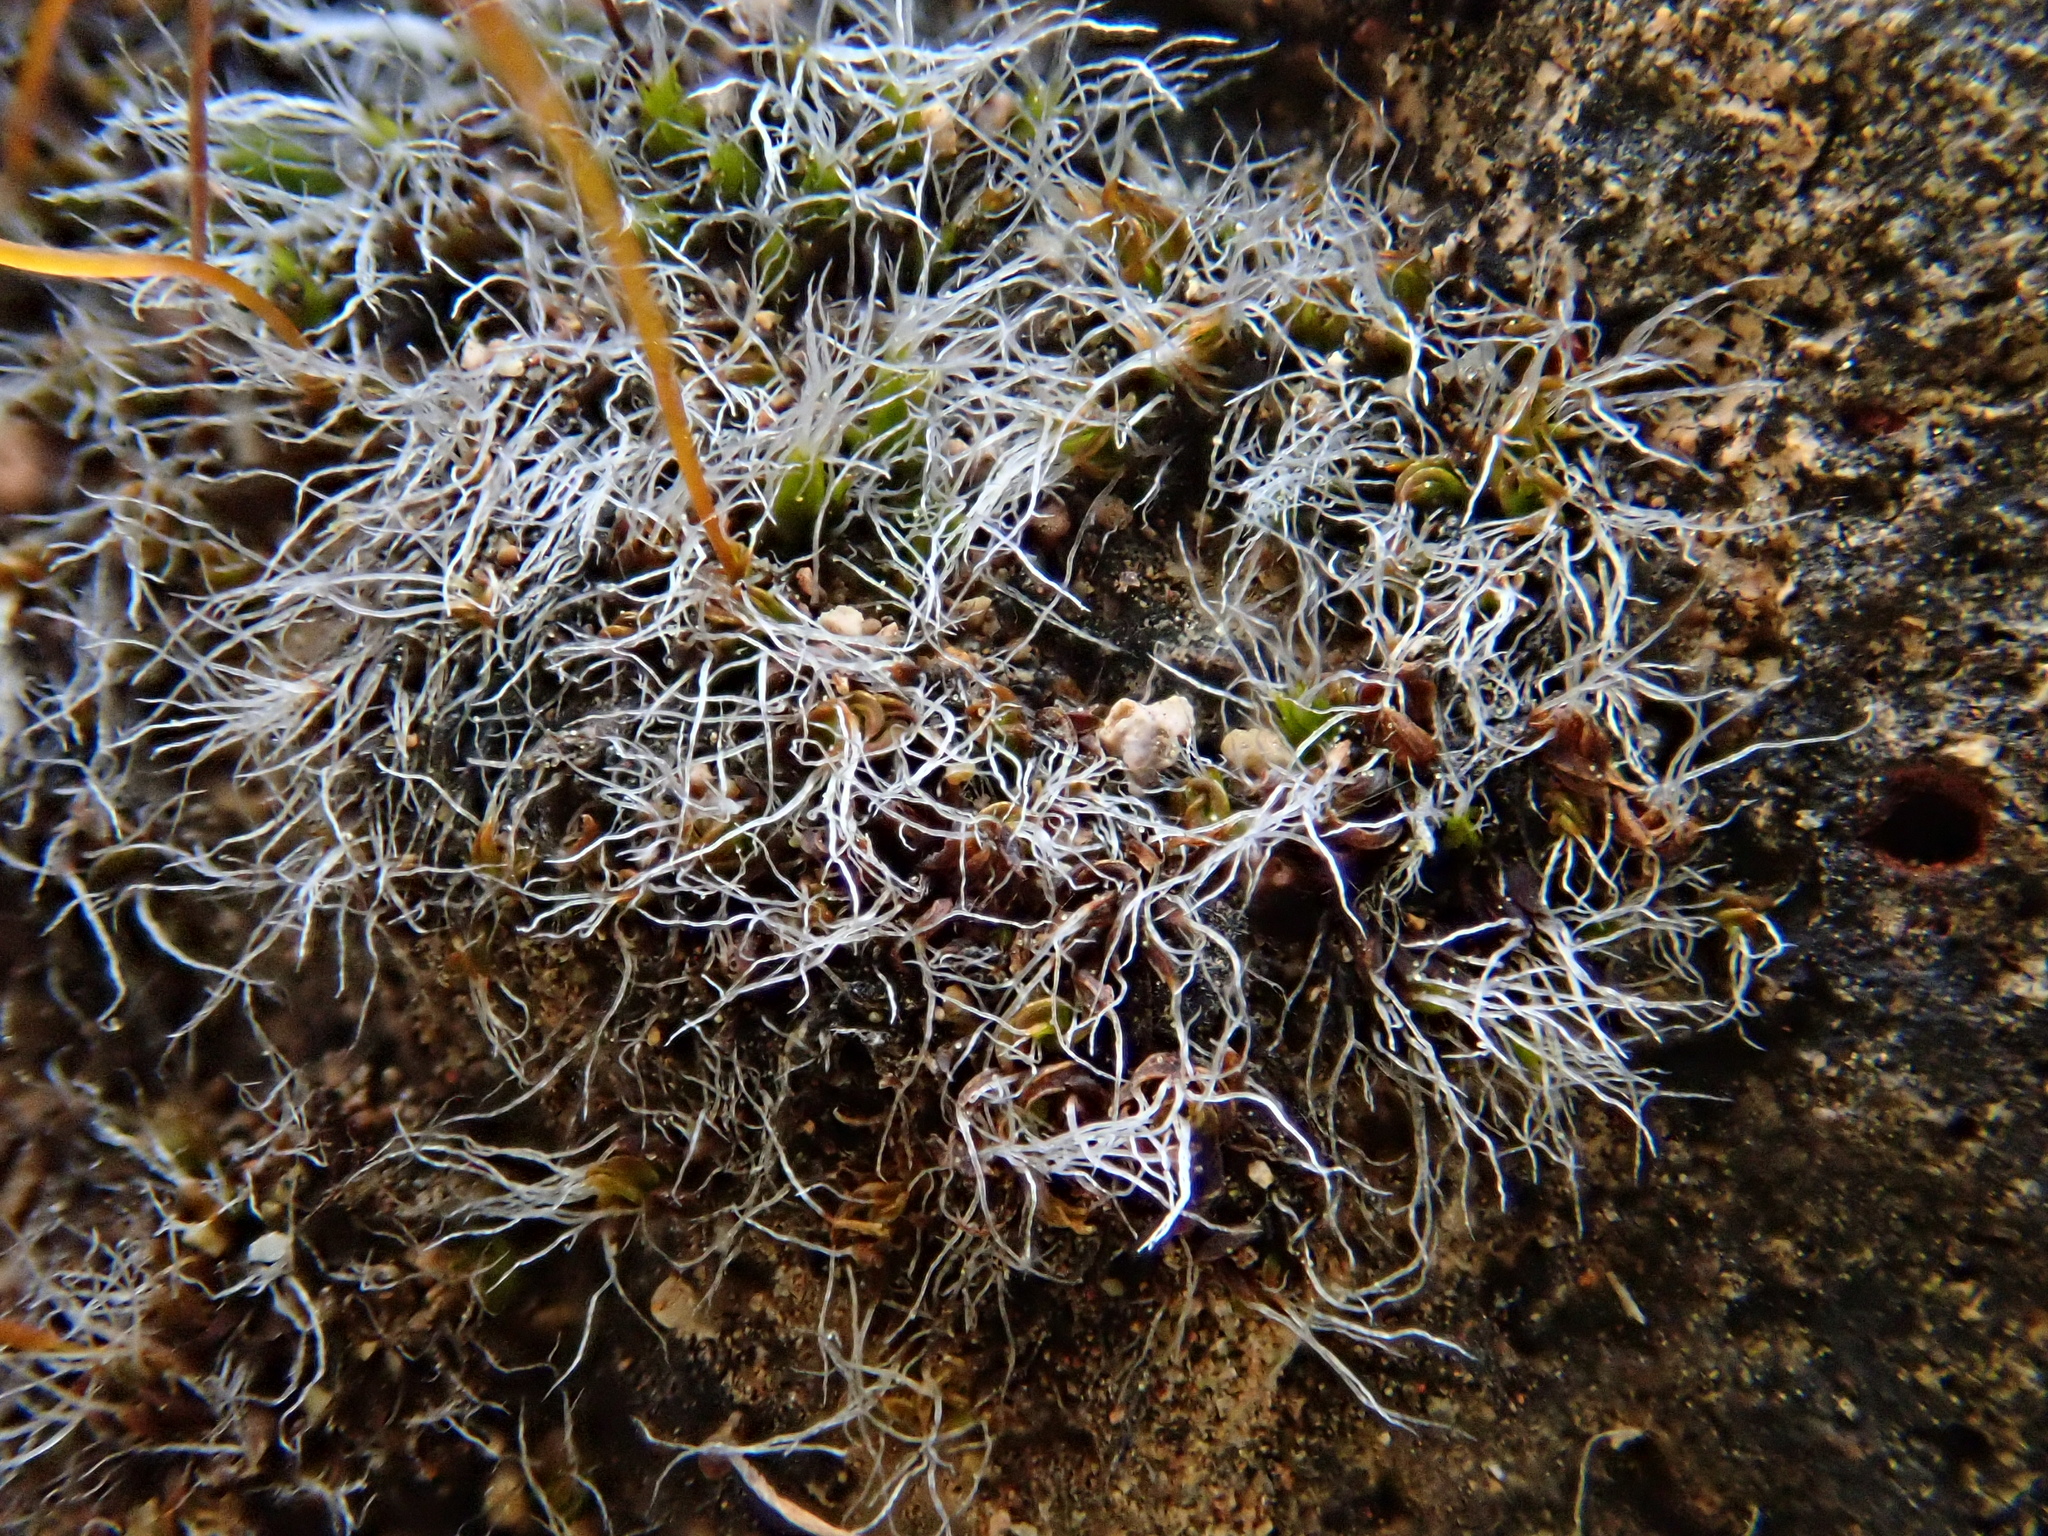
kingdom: Plantae
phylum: Bryophyta
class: Bryopsida
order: Pottiales
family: Pottiaceae
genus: Tortula
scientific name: Tortula muralis
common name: Wall screw-moss
